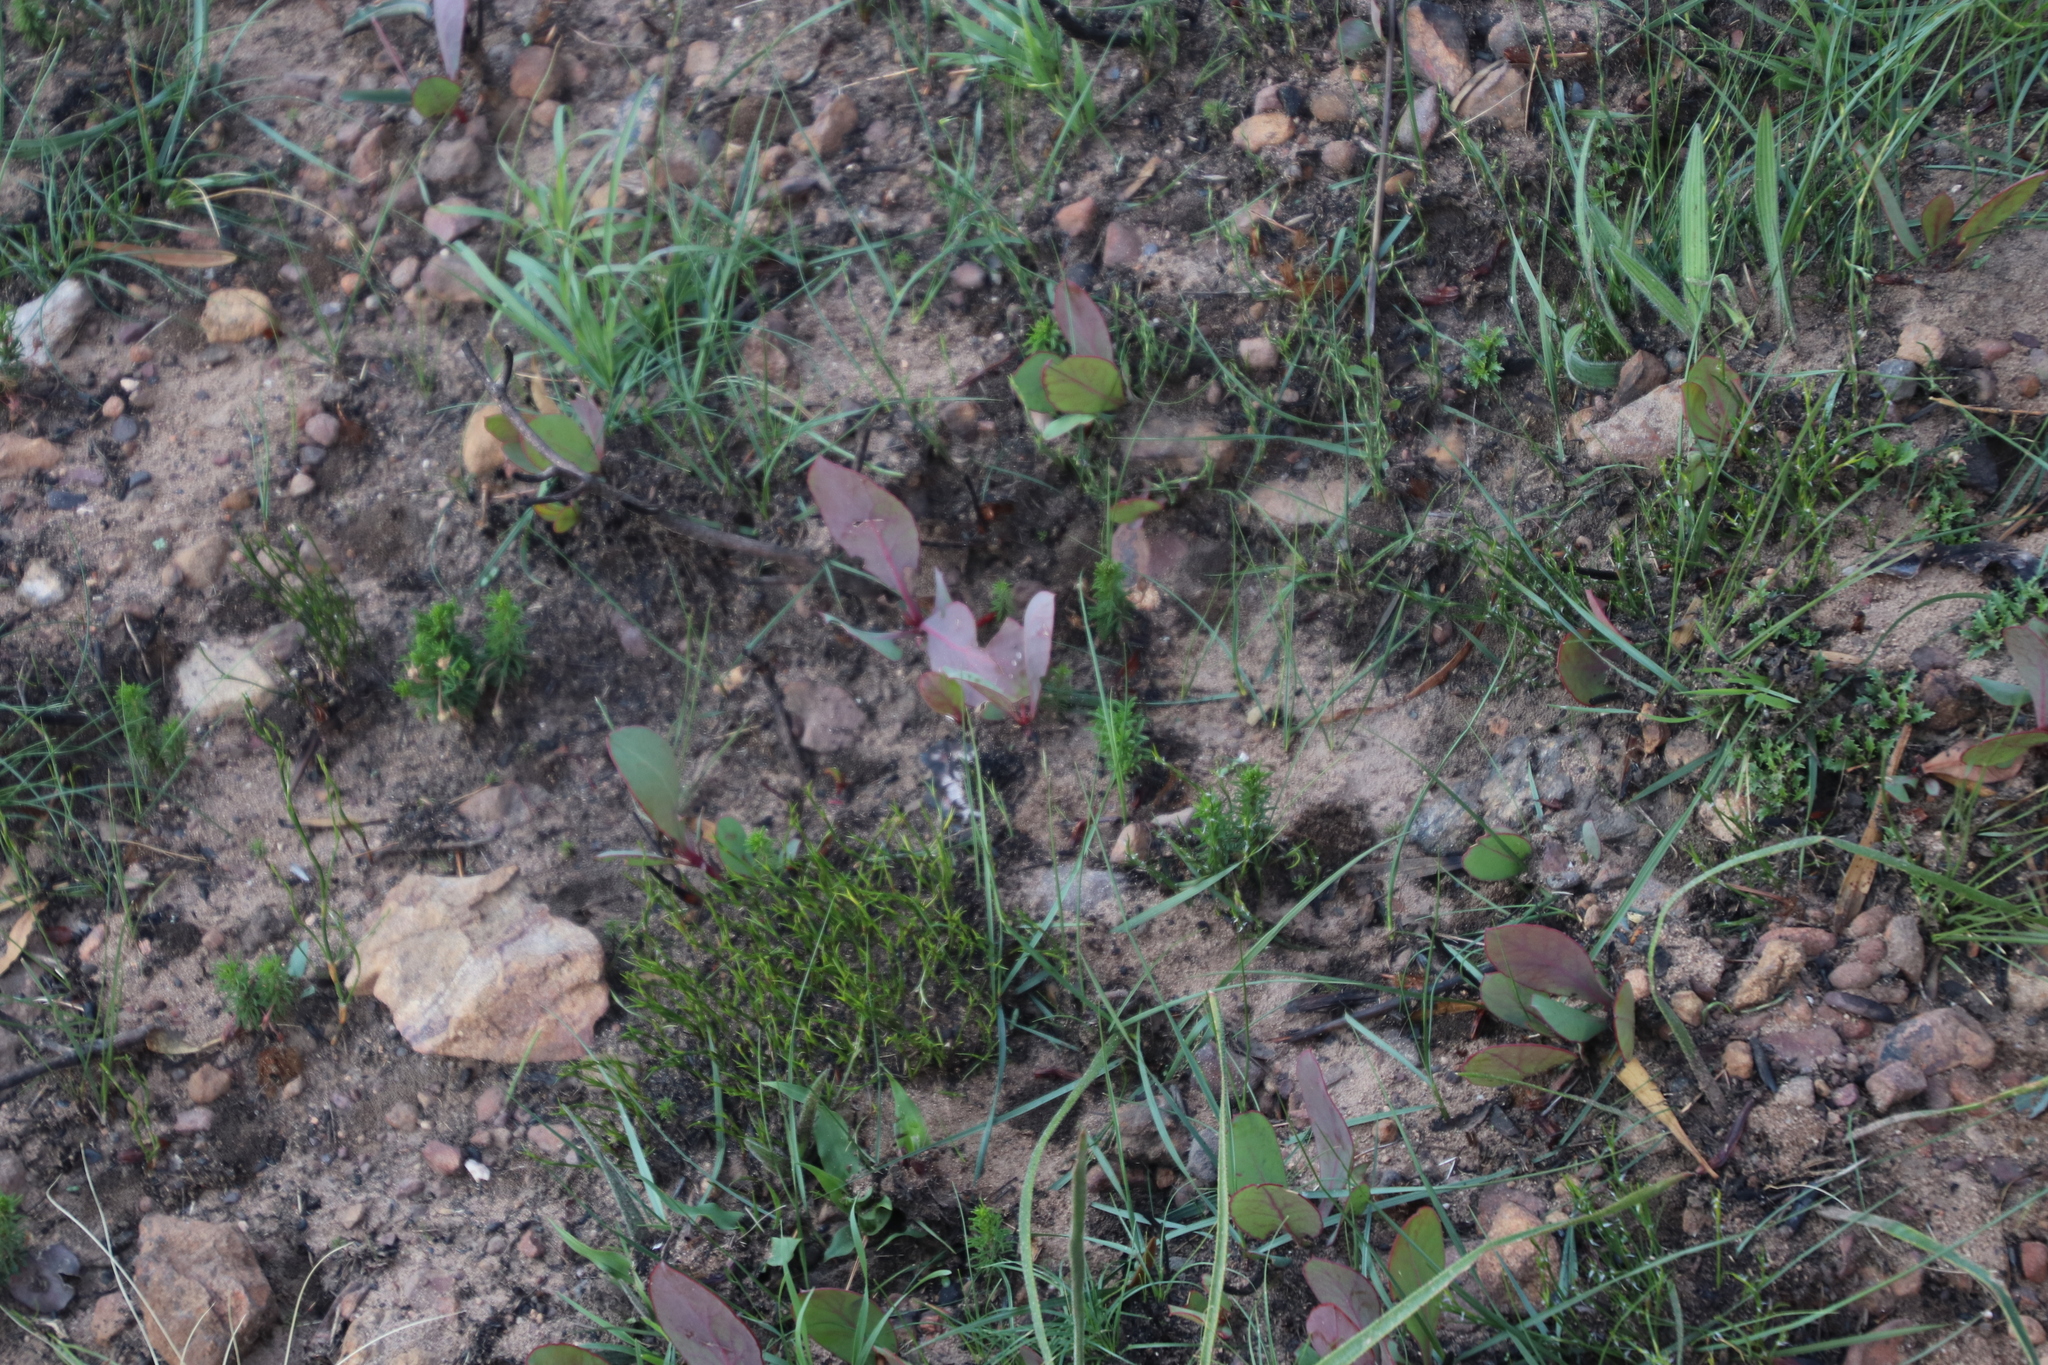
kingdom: Plantae
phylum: Tracheophyta
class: Magnoliopsida
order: Proteales
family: Proteaceae
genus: Protea
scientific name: Protea acaulos
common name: Common ground sugarbush
